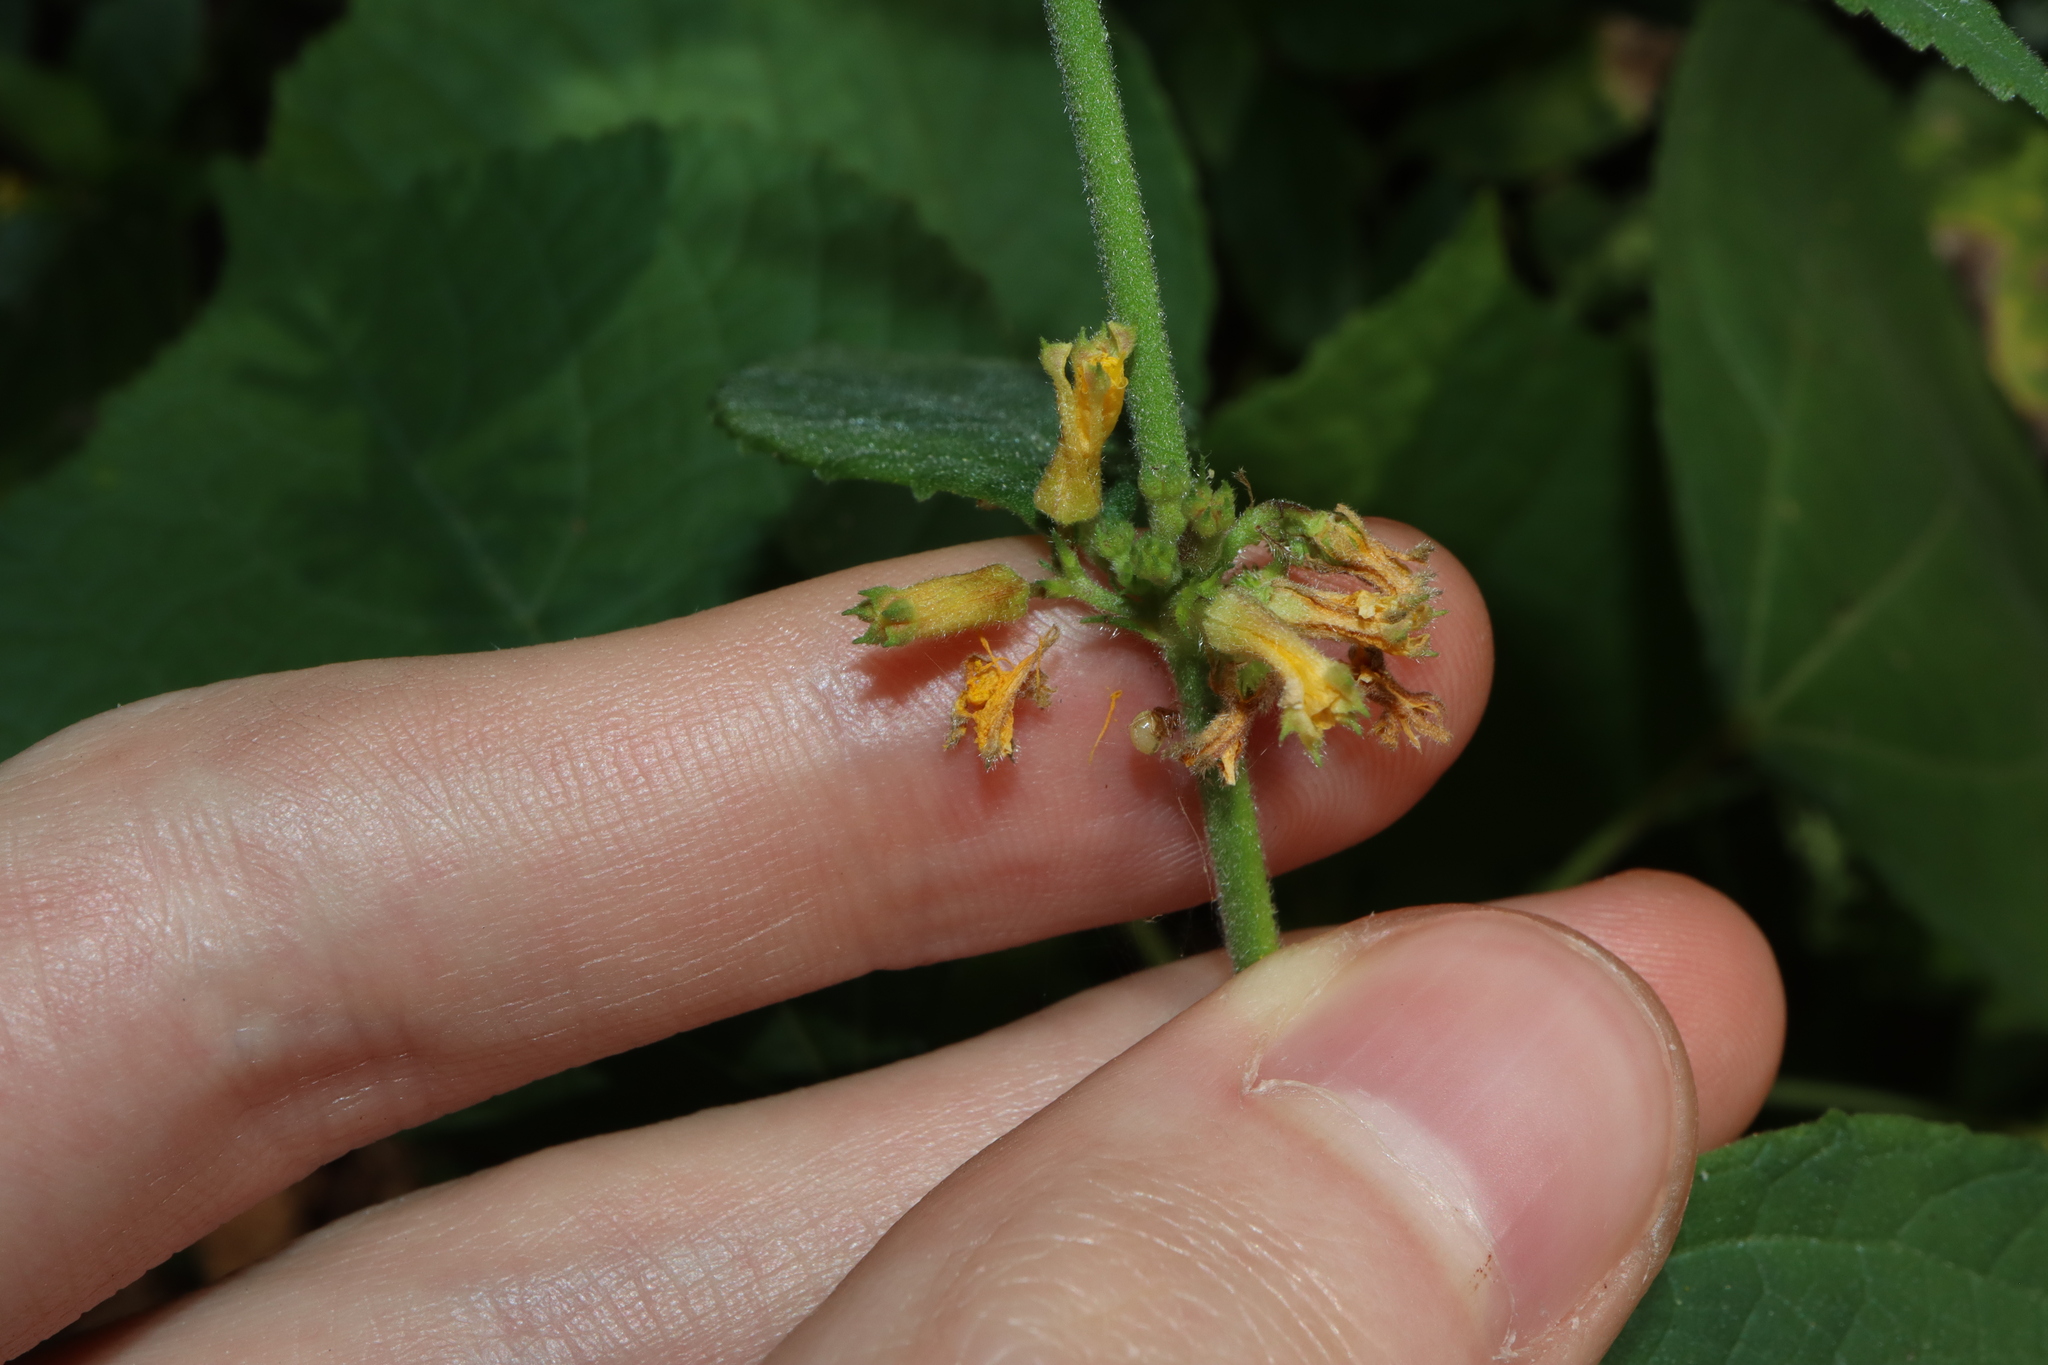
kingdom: Plantae
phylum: Tracheophyta
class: Magnoliopsida
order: Malvales
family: Malvaceae
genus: Triumfetta
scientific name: Triumfetta rhomboidea
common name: Diamond burbark
